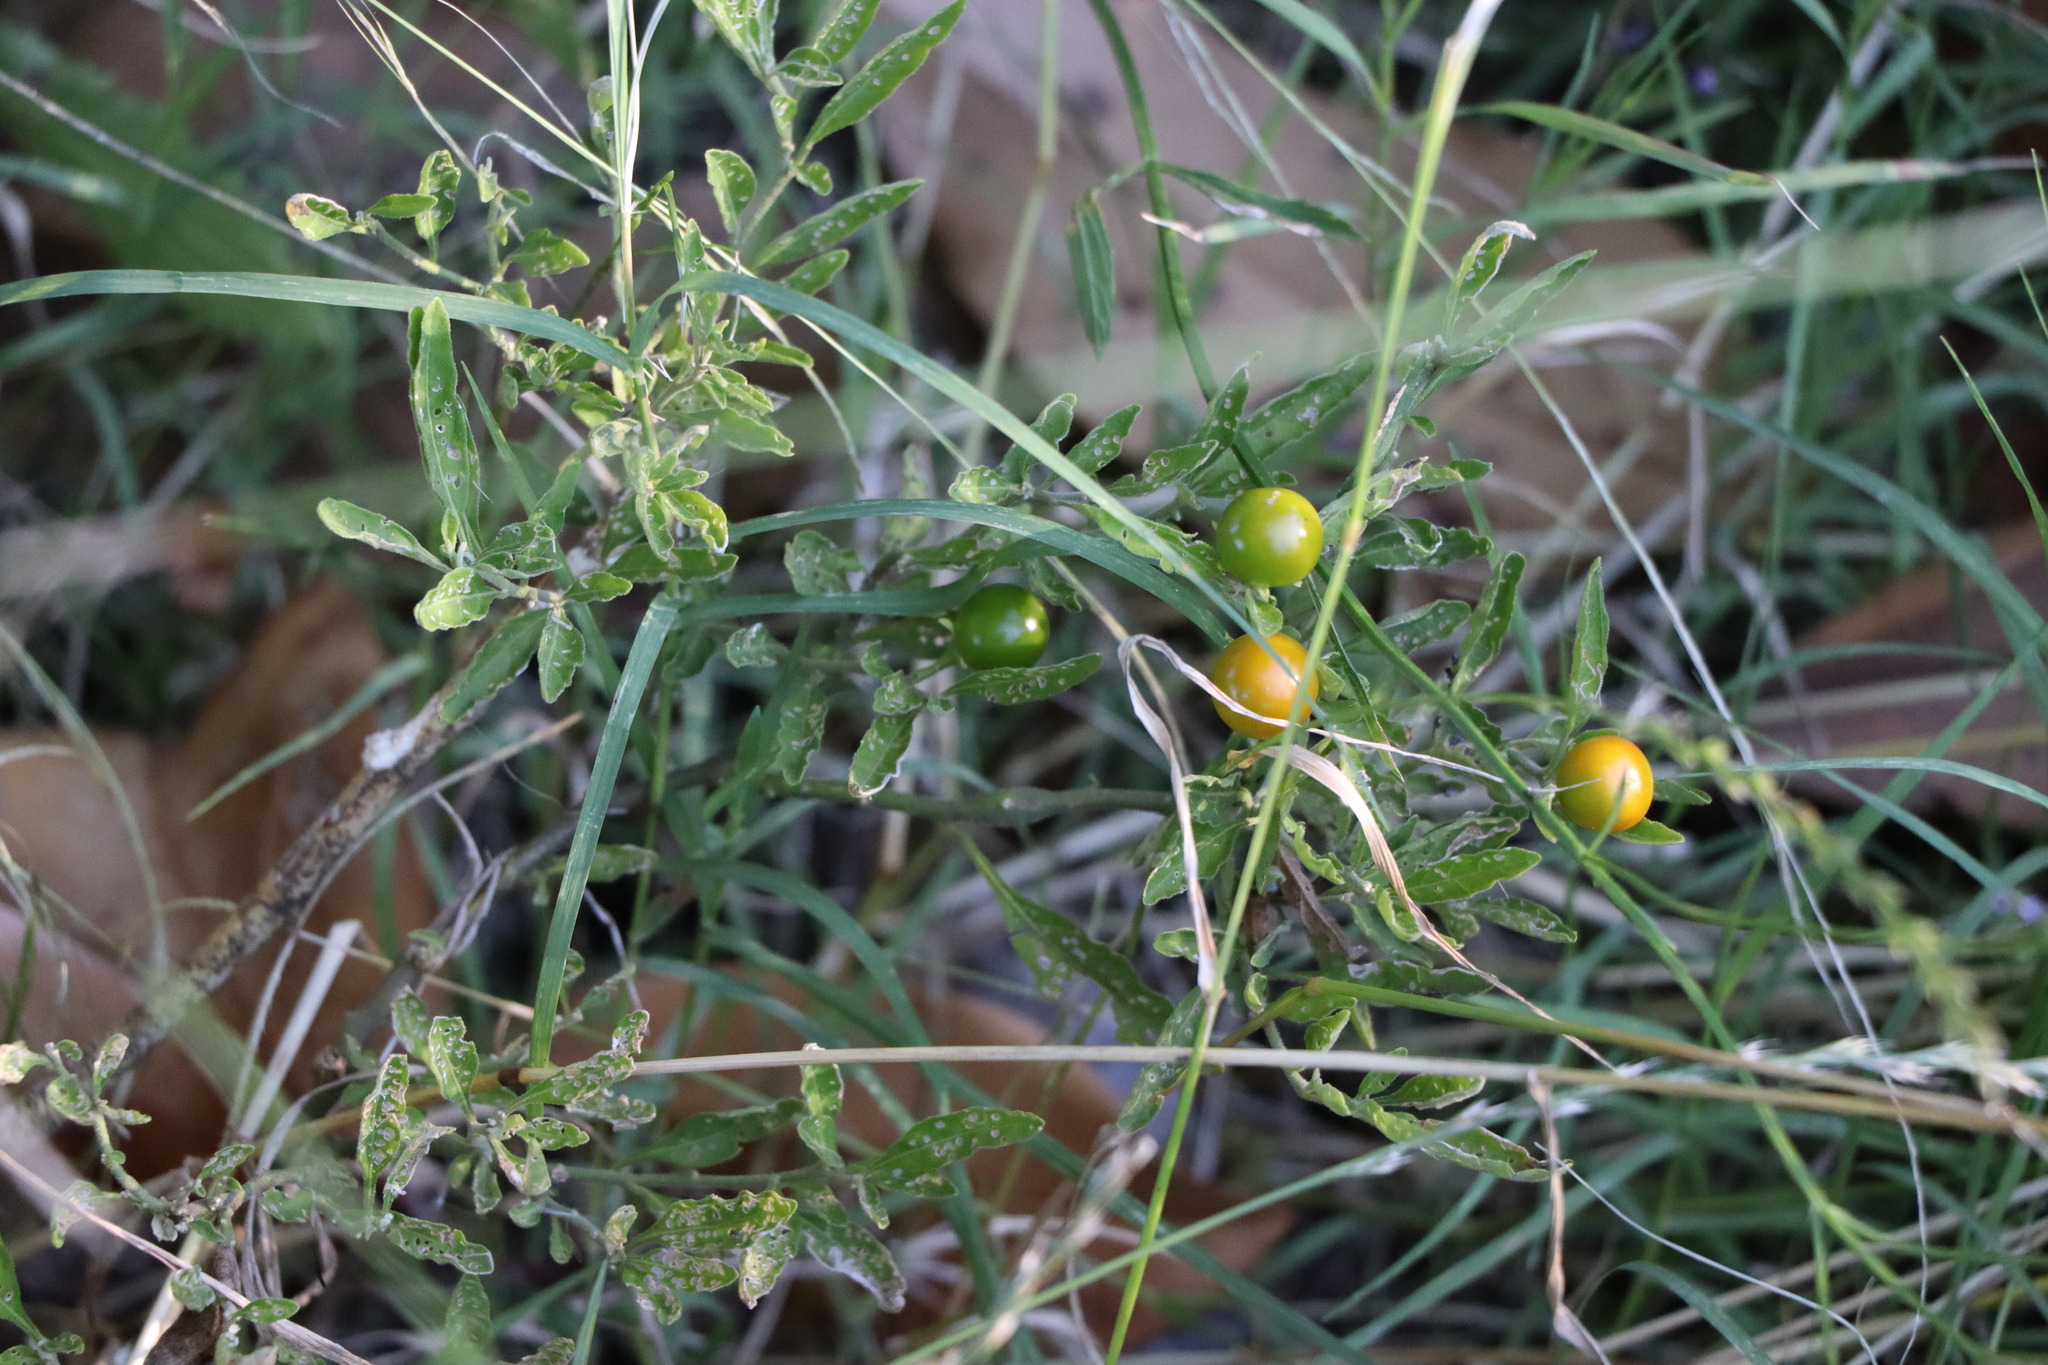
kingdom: Plantae
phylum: Tracheophyta
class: Magnoliopsida
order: Solanales
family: Solanaceae
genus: Solanum
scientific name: Solanum pseudocapsicum
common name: Jerusalem cherry
